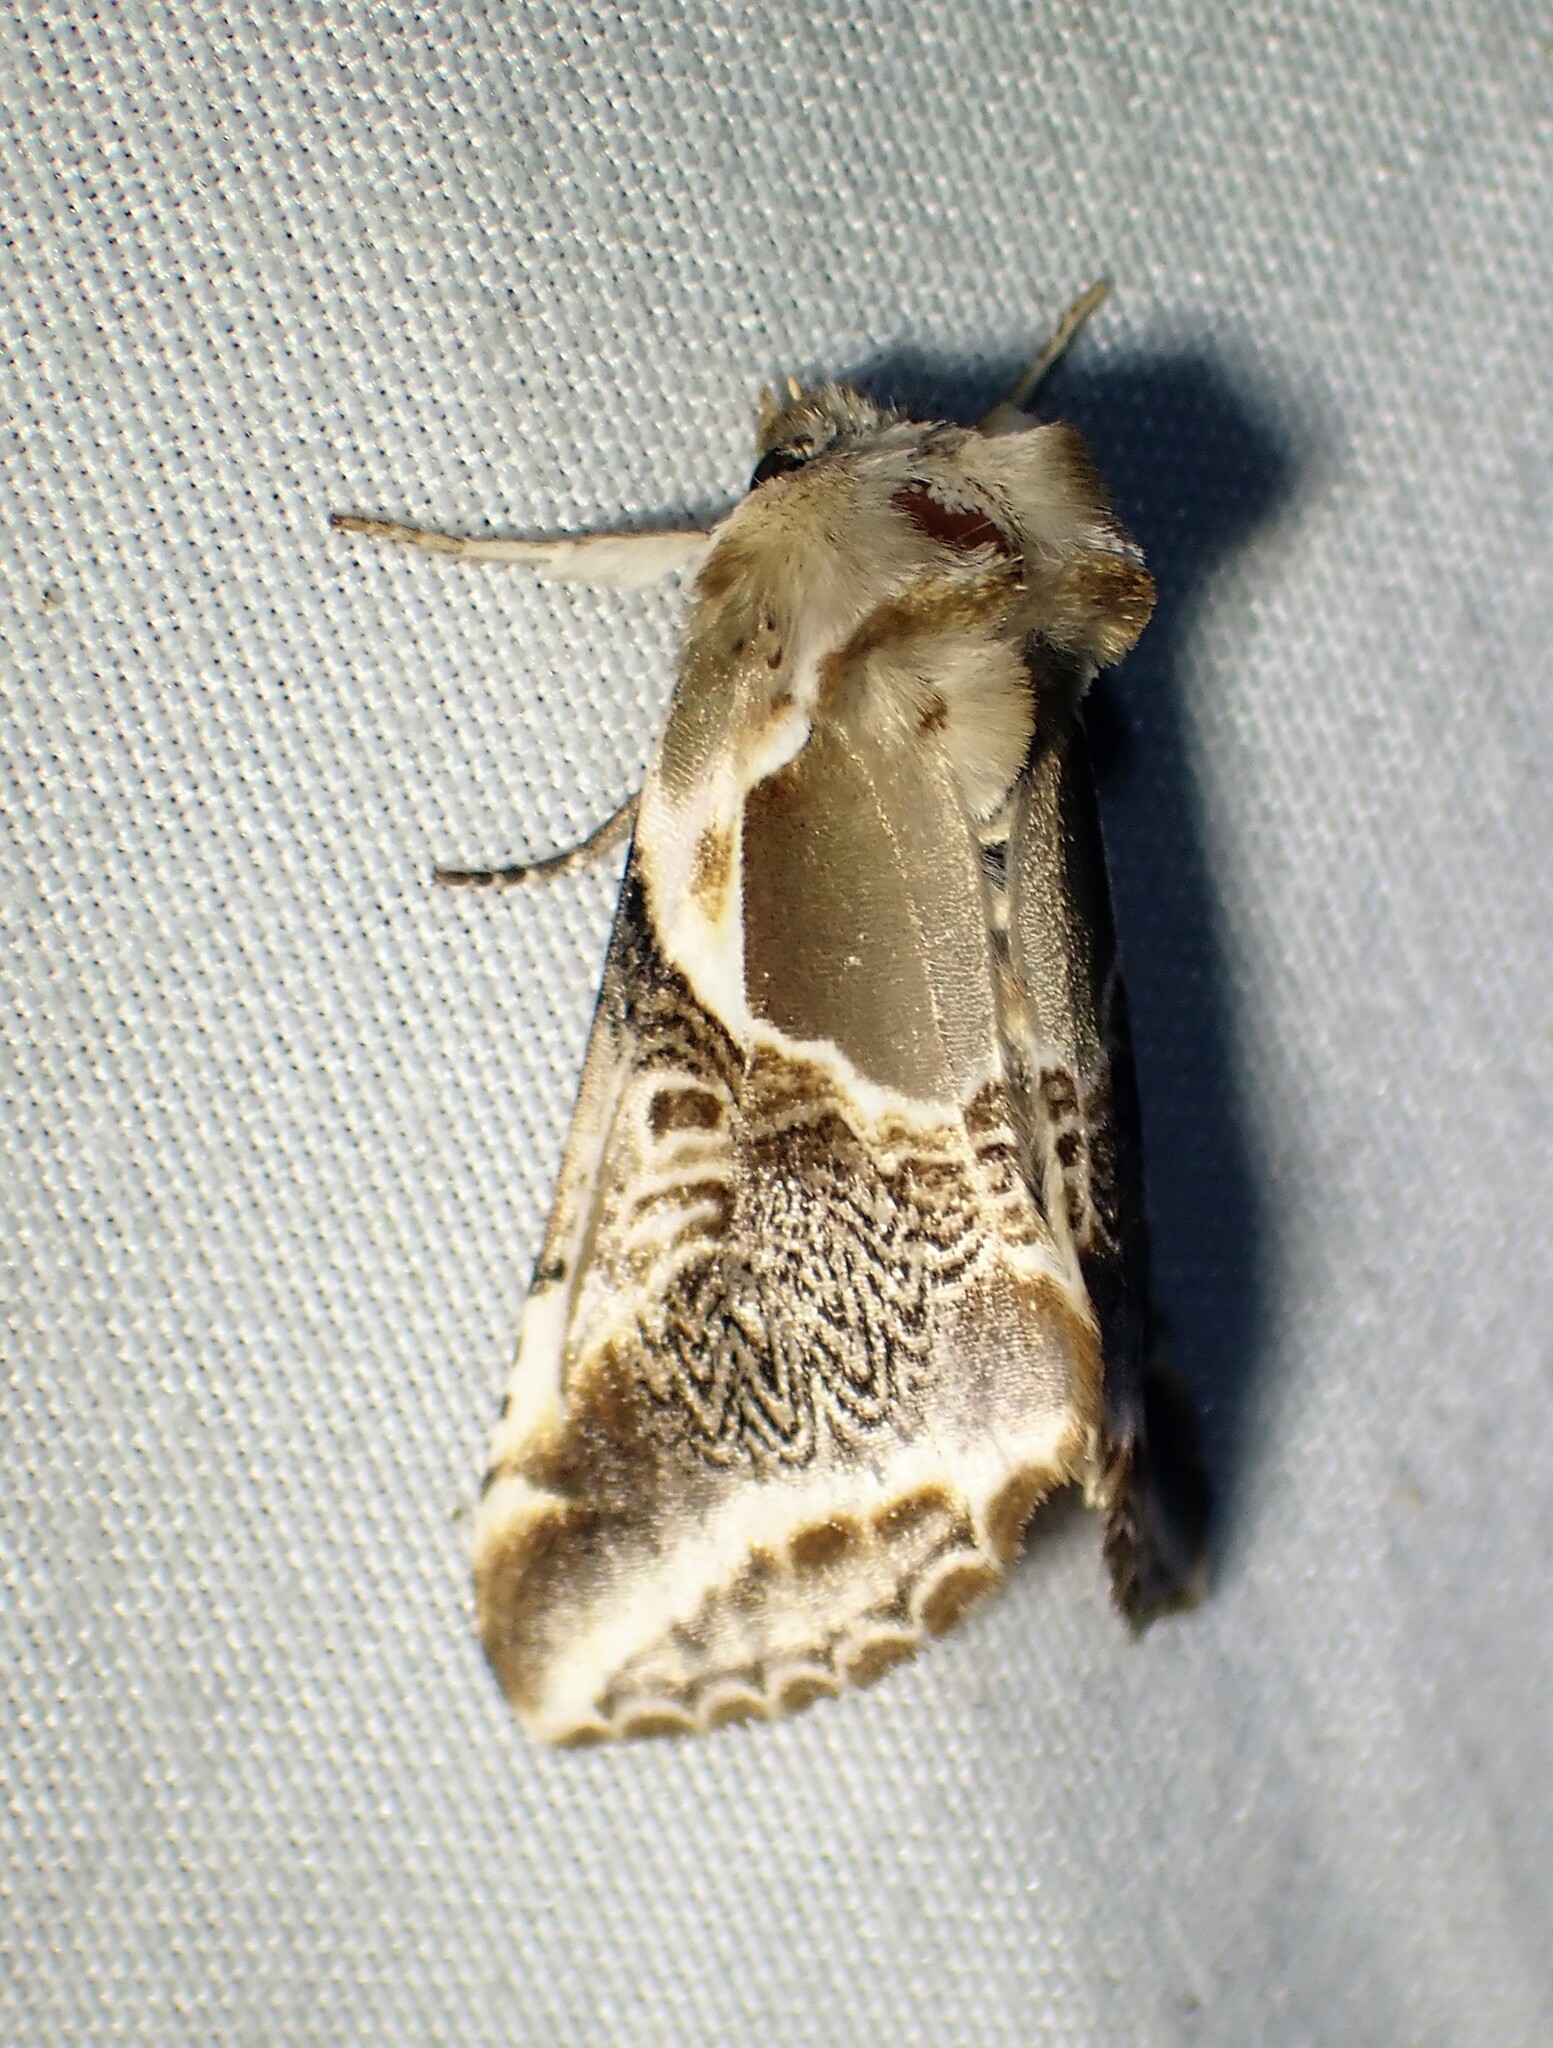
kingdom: Animalia
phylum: Arthropoda
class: Insecta
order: Lepidoptera
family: Drepanidae
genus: Habrosyne
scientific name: Habrosyne scripta
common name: Lettered habrosyne moth
